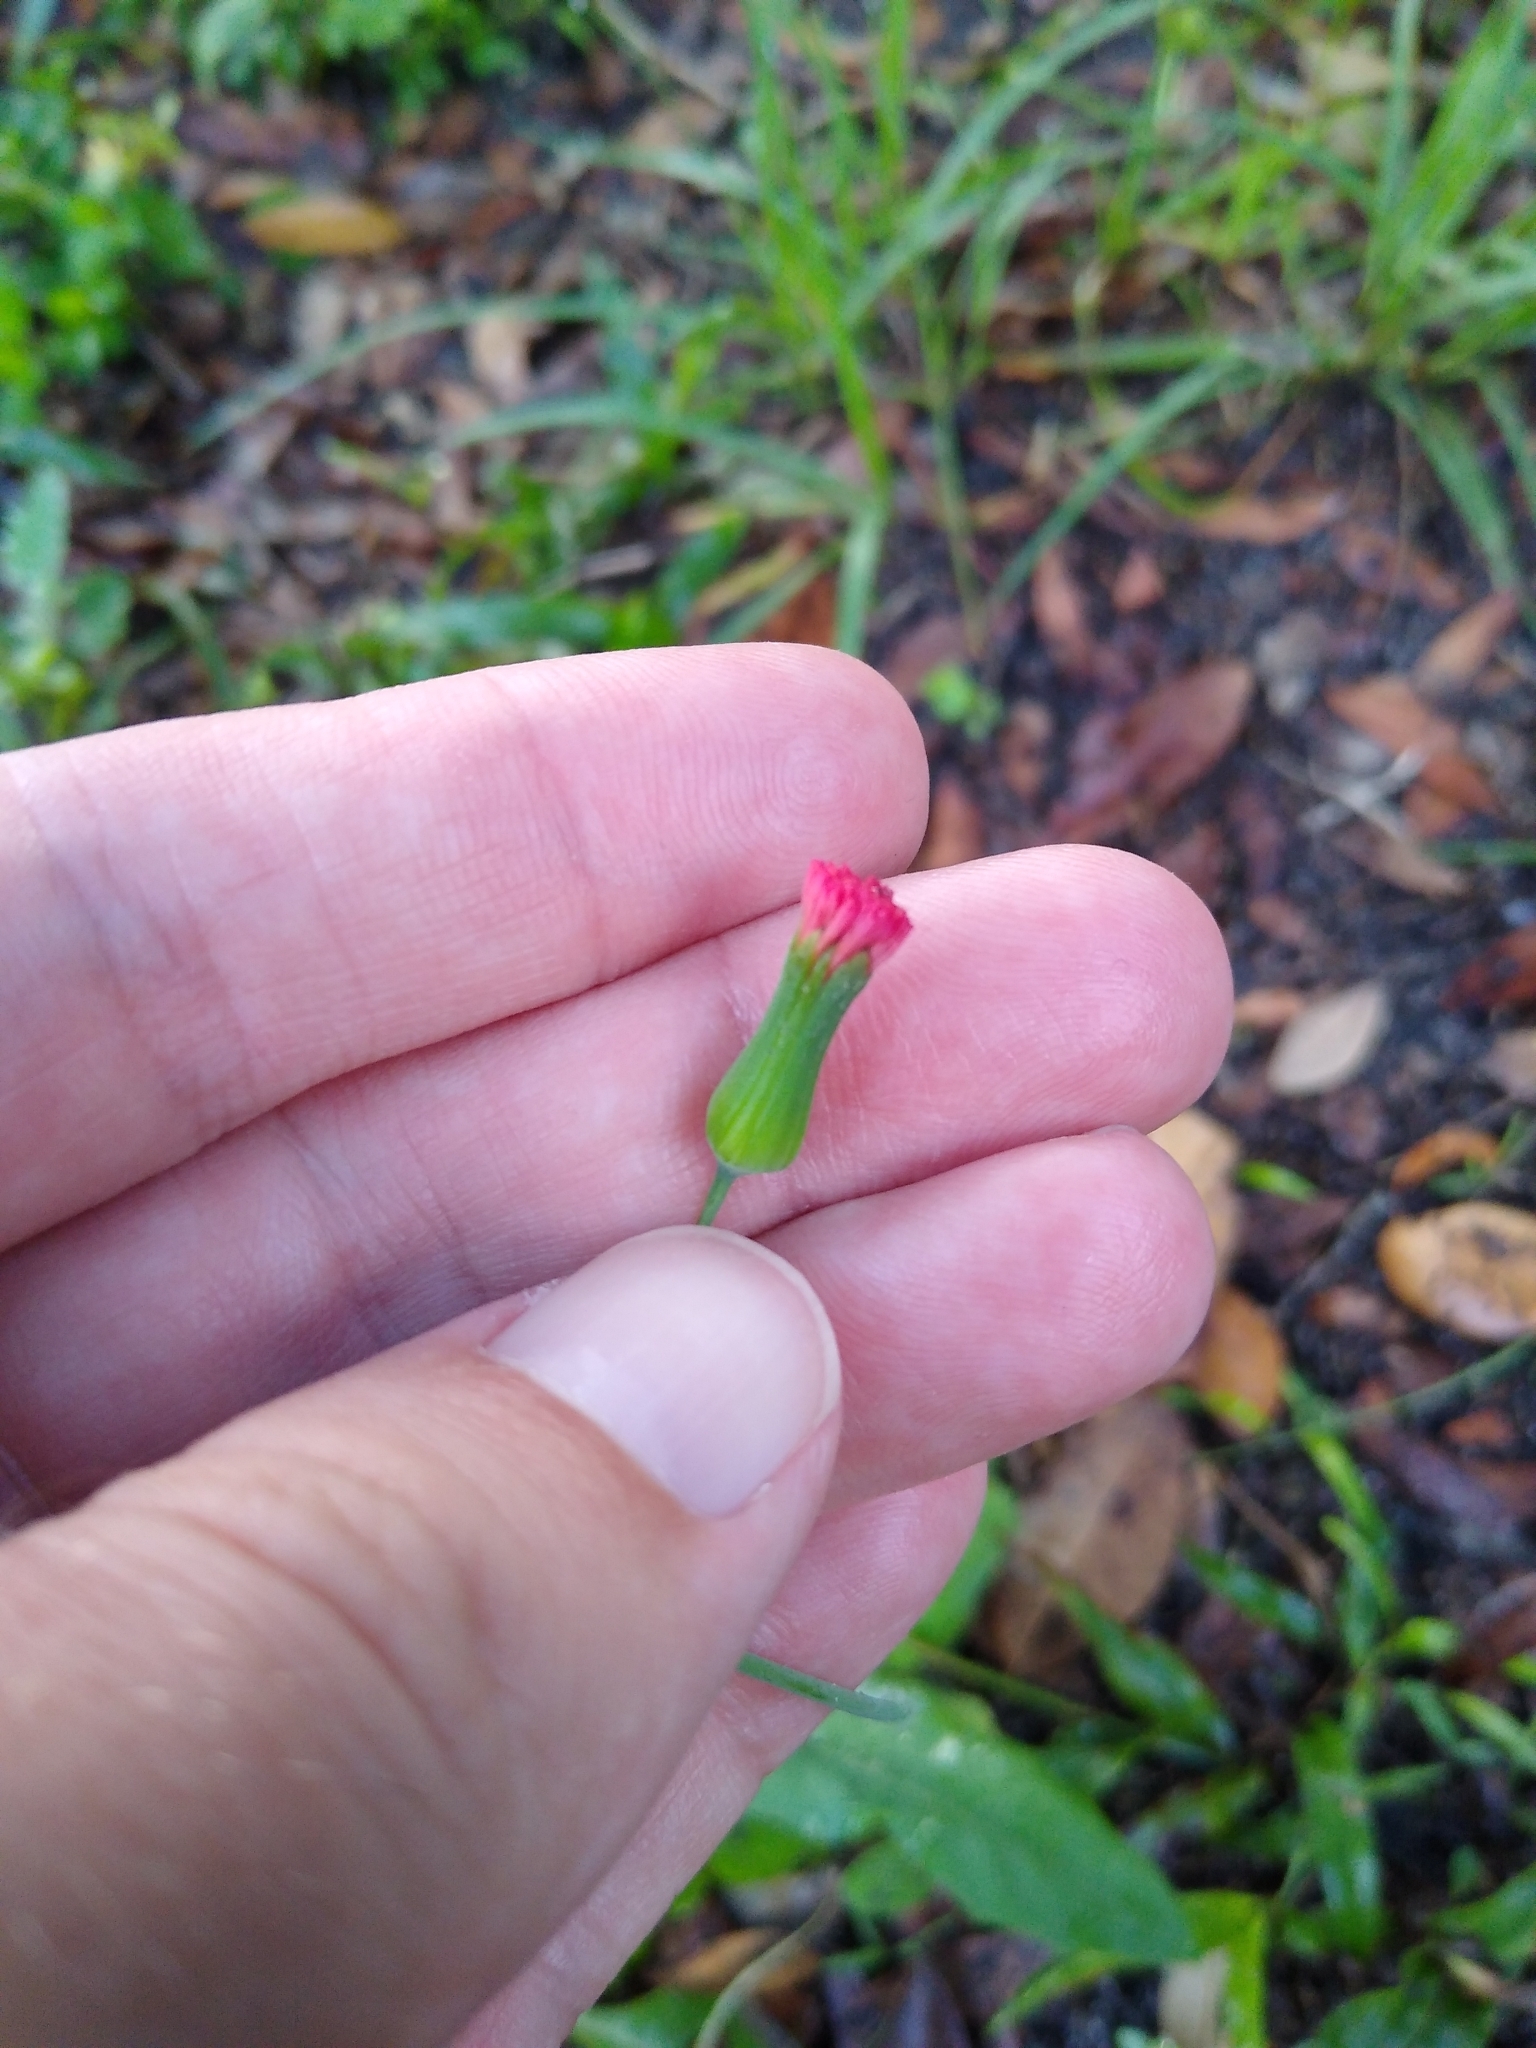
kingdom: Plantae
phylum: Tracheophyta
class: Magnoliopsida
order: Asterales
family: Asteraceae
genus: Emilia
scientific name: Emilia fosbergii
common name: Florida tasselflower
